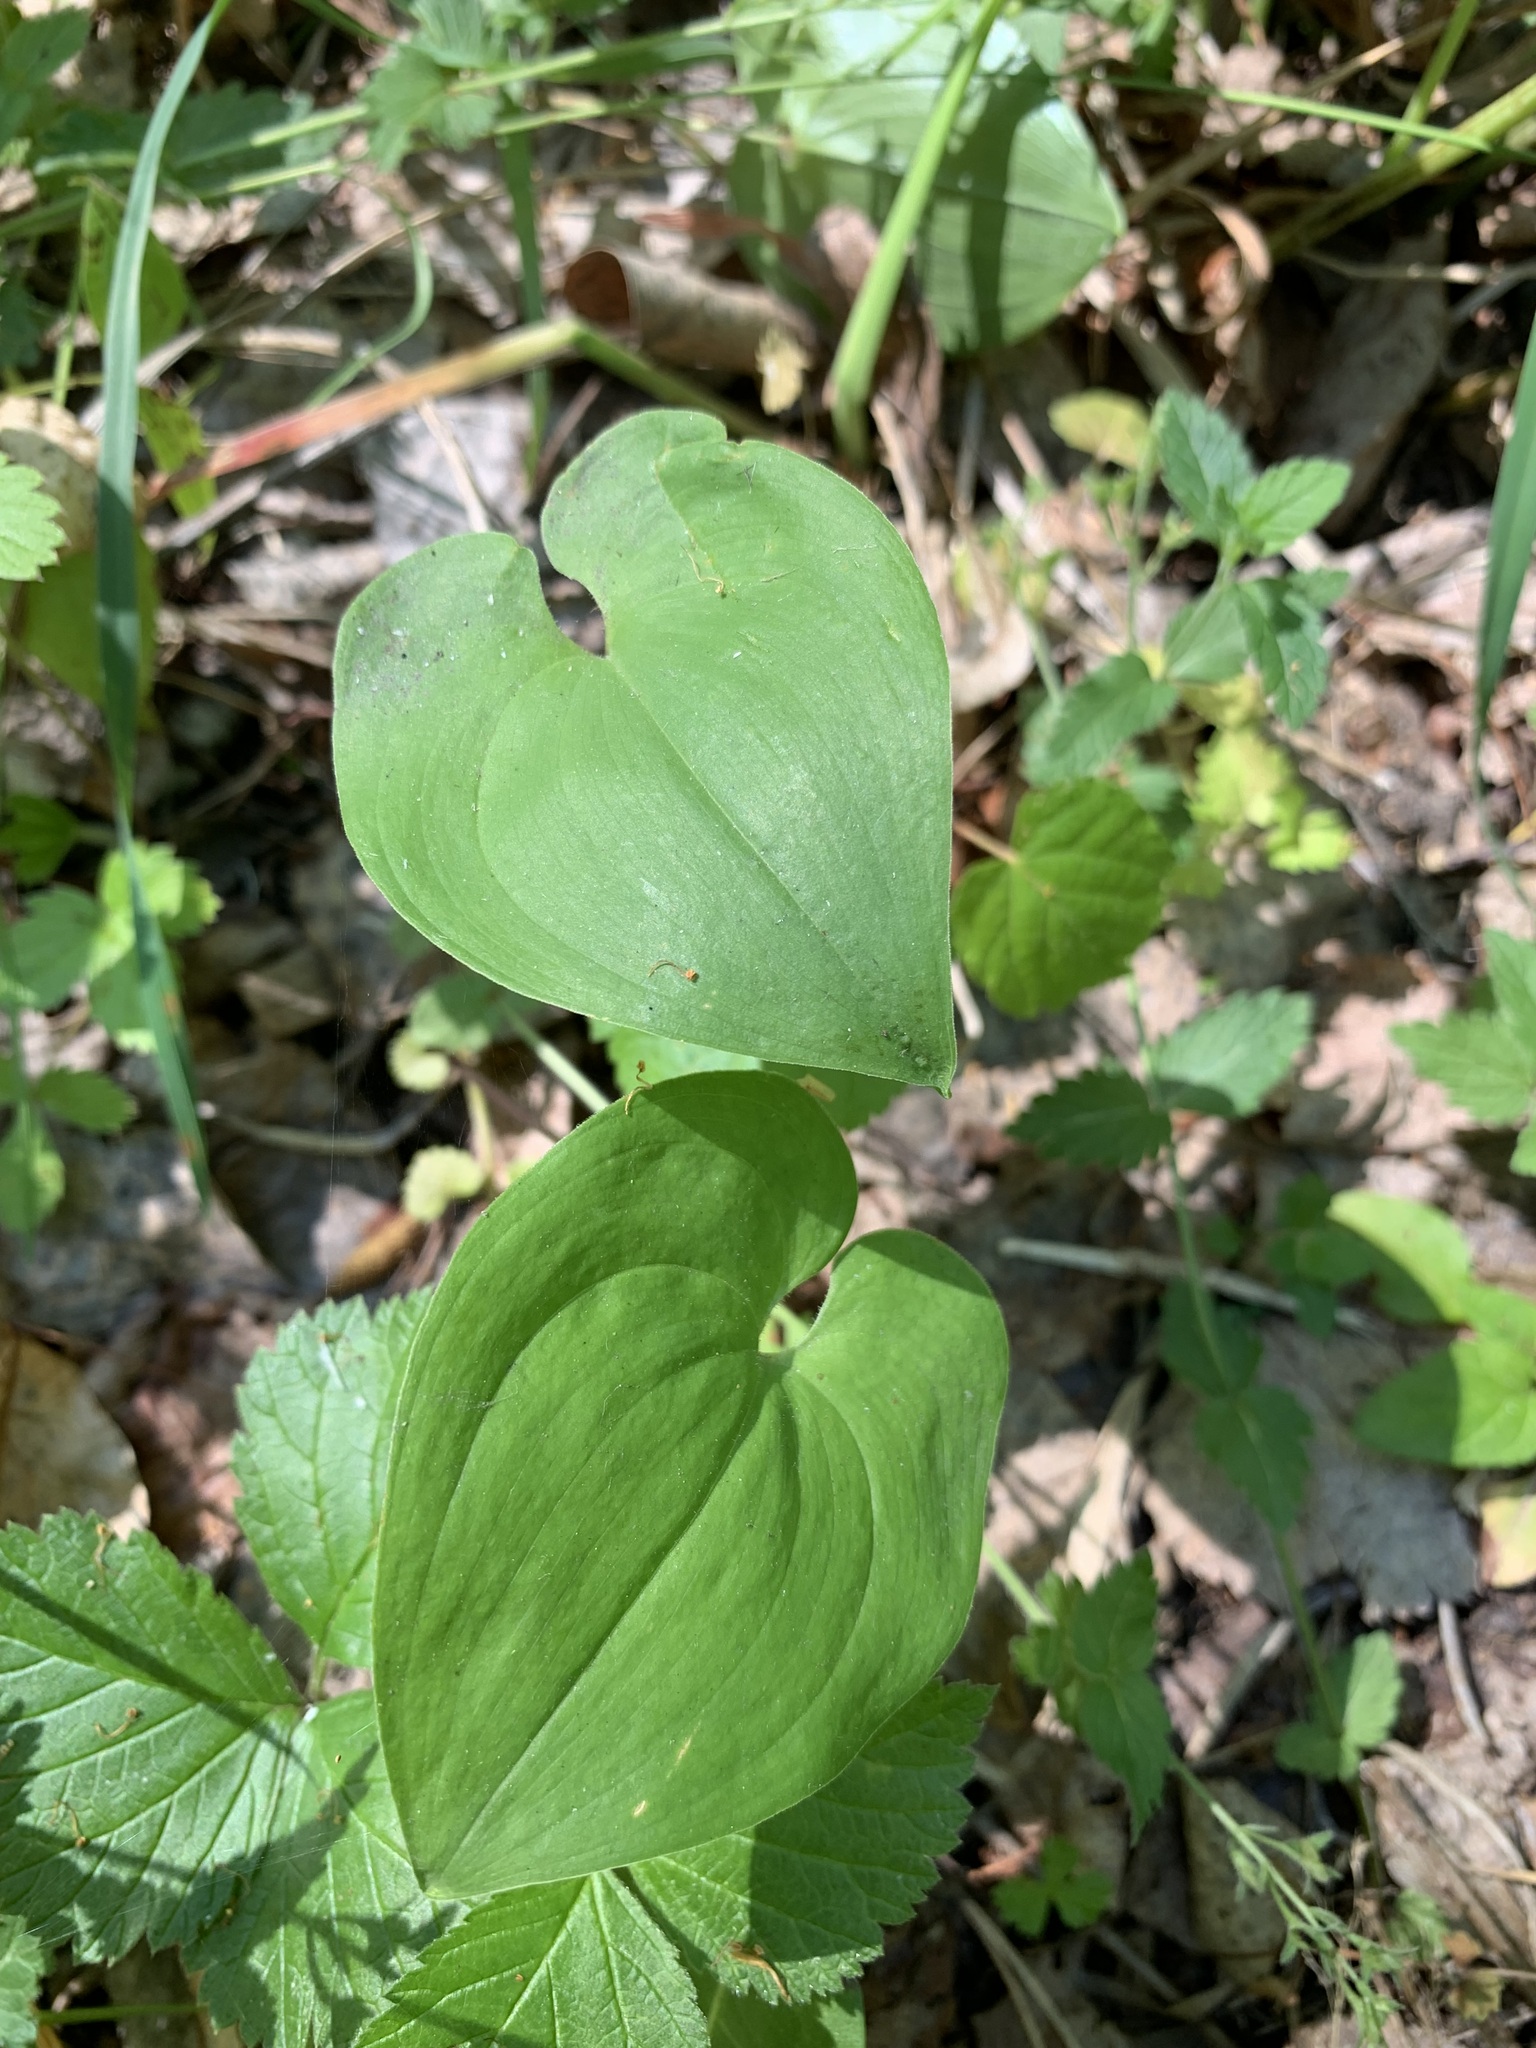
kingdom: Plantae
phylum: Tracheophyta
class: Liliopsida
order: Asparagales
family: Asparagaceae
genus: Maianthemum
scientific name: Maianthemum bifolium
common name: May lily
